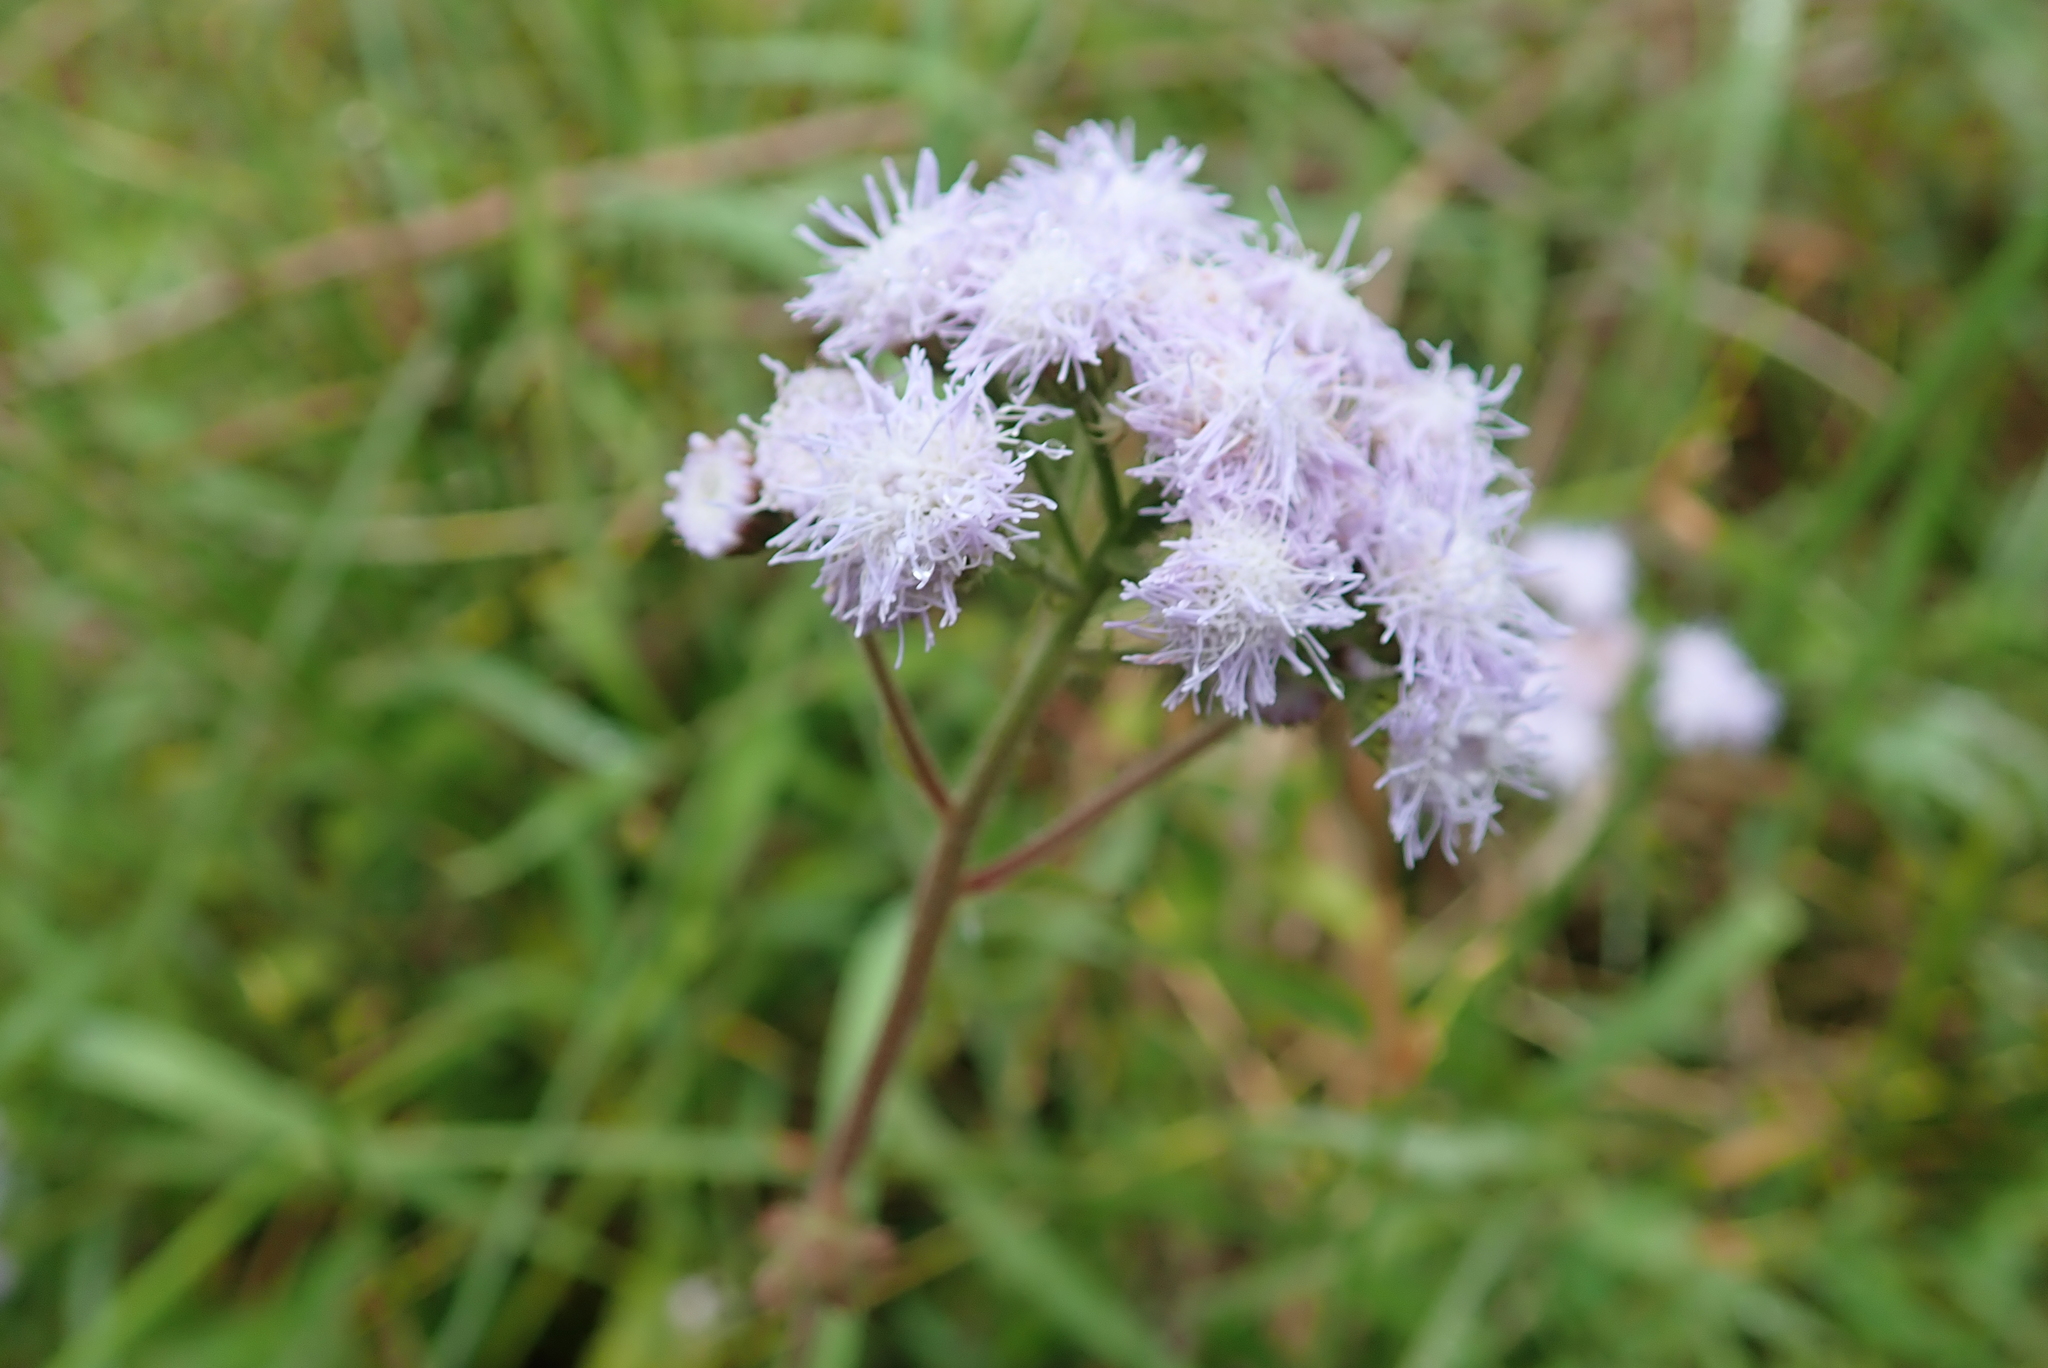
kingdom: Plantae
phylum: Tracheophyta
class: Magnoliopsida
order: Asterales
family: Asteraceae
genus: Ageratum
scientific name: Ageratum houstonianum
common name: Bluemink
